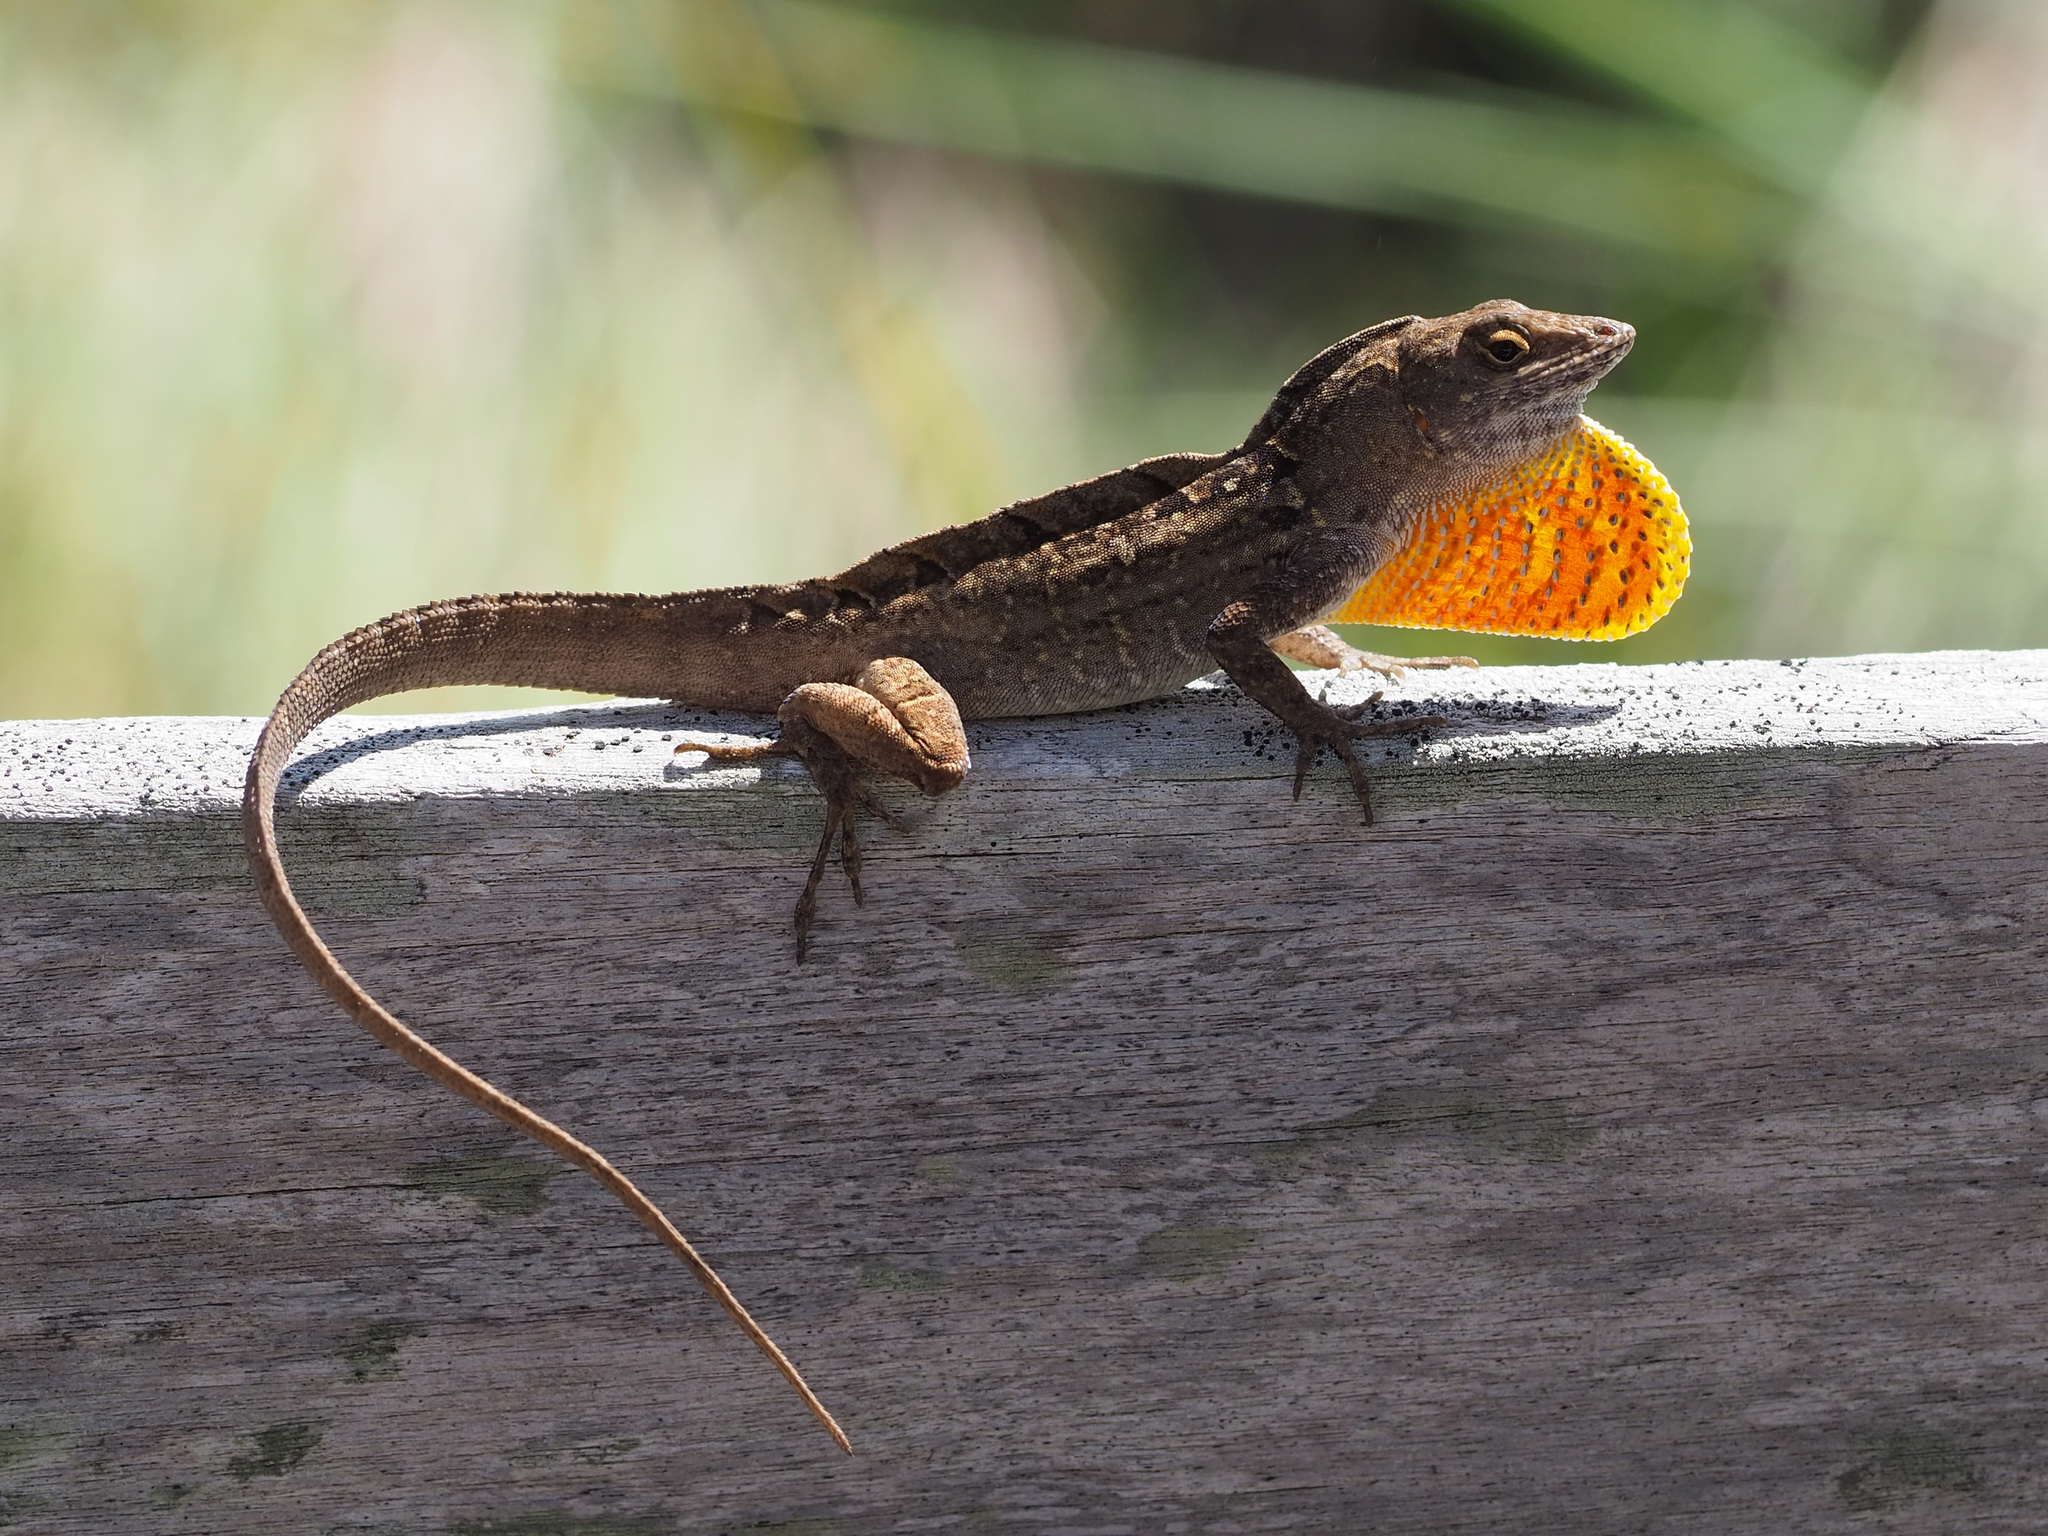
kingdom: Animalia
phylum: Chordata
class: Squamata
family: Dactyloidae
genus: Anolis
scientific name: Anolis sagrei
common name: Brown anole
